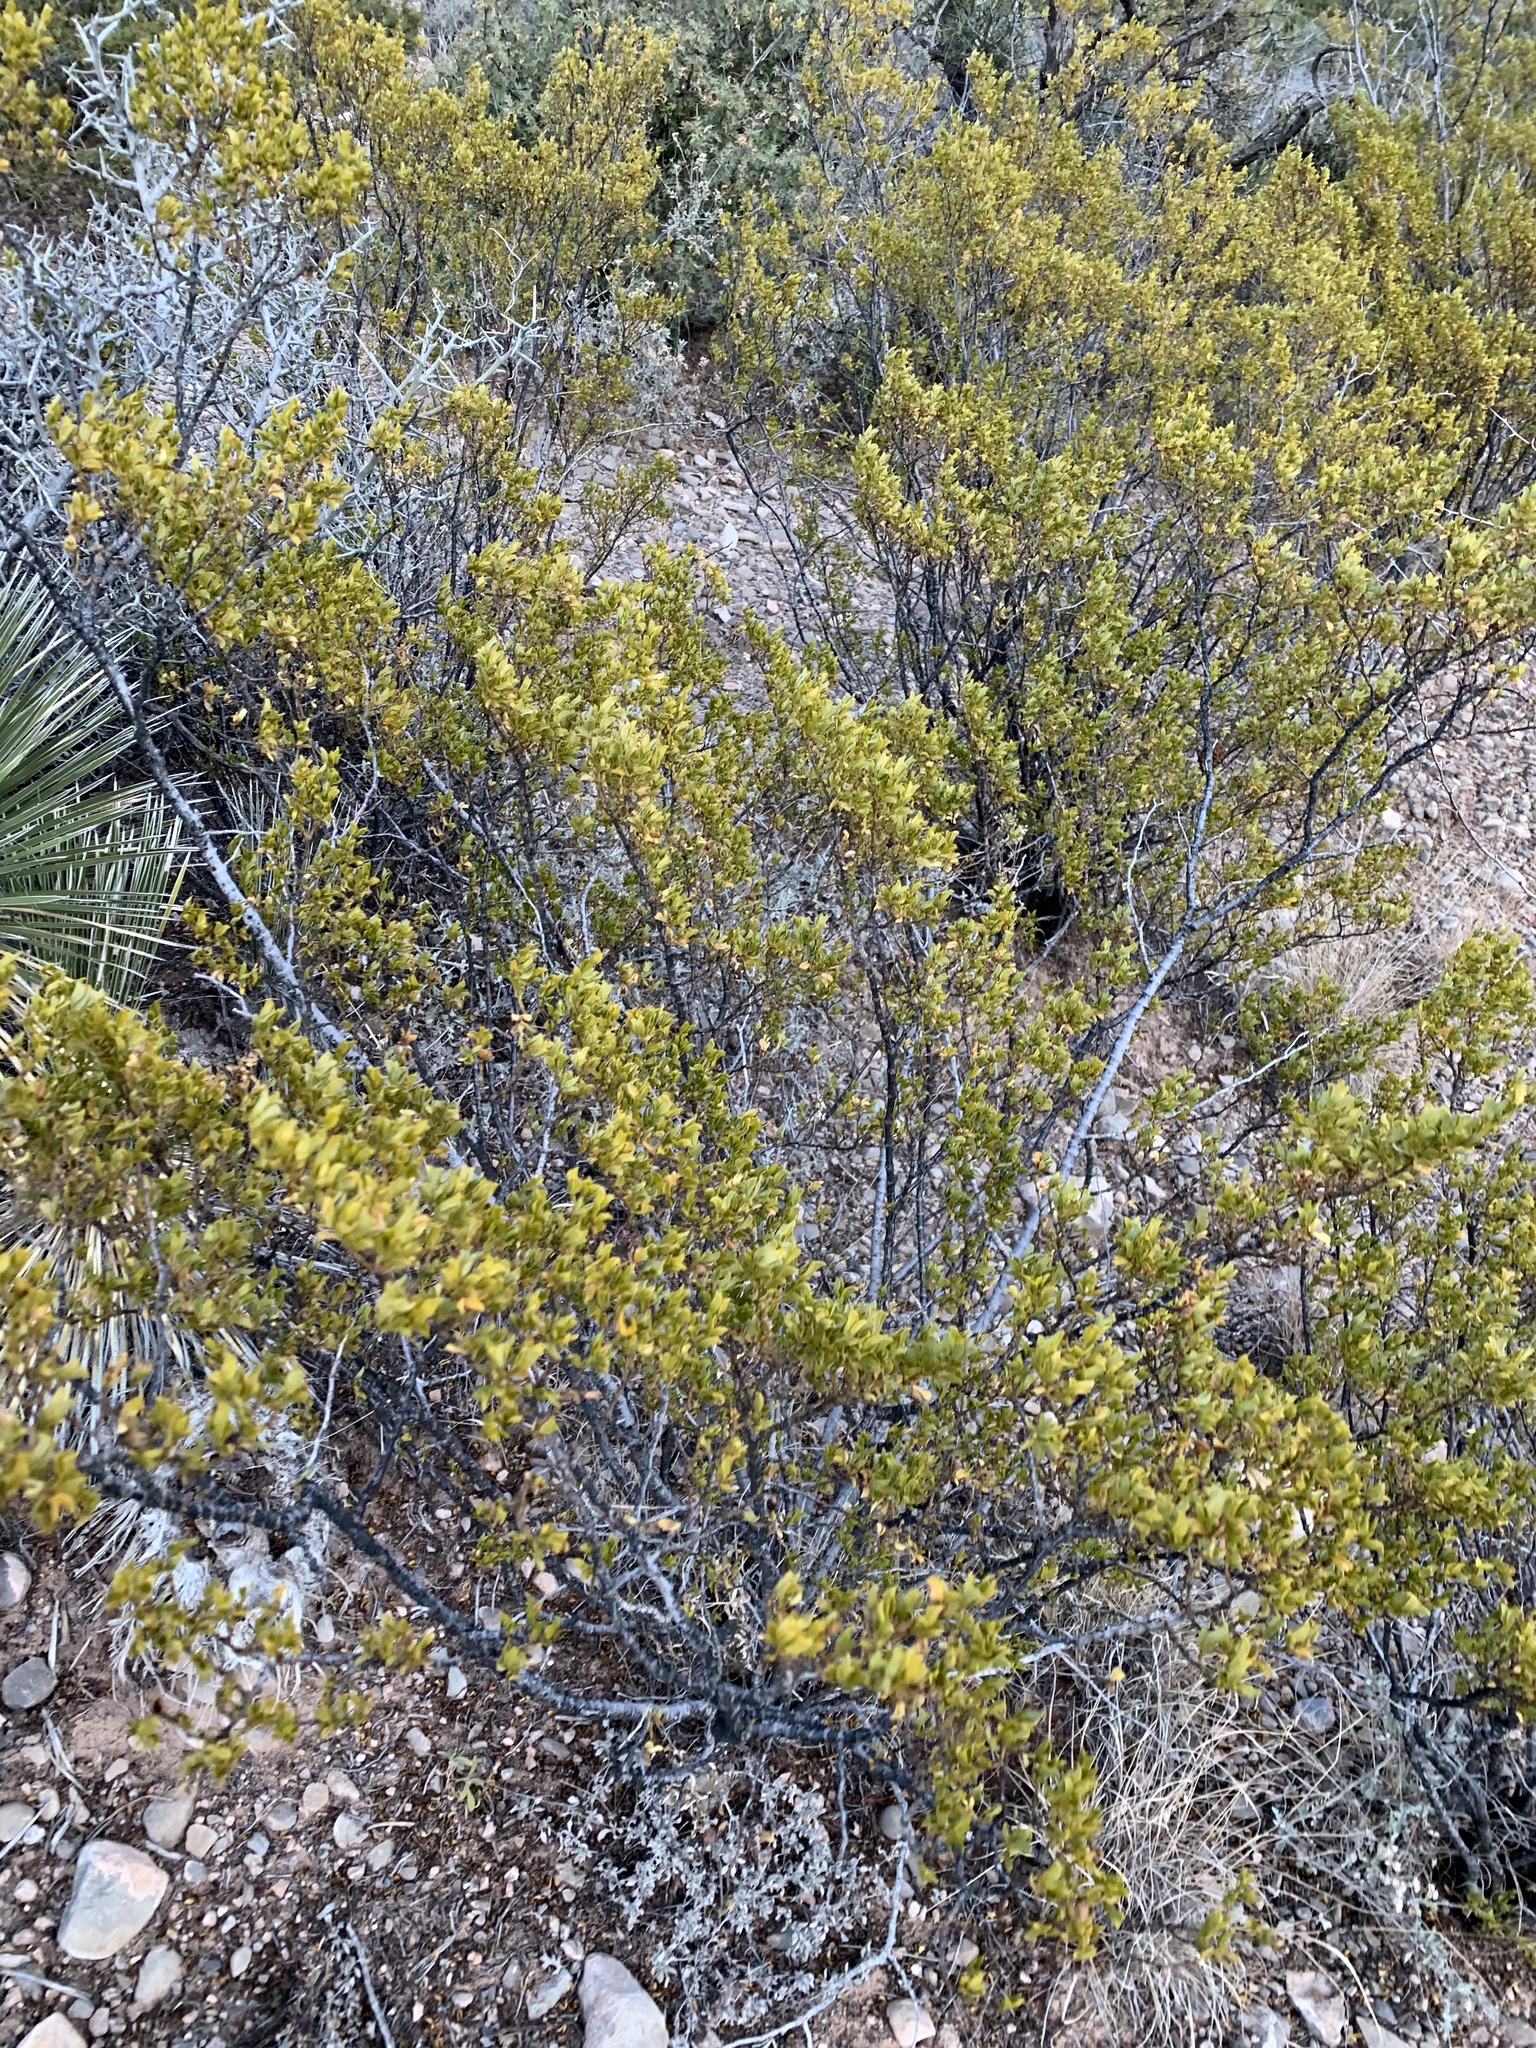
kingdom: Plantae
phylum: Tracheophyta
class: Magnoliopsida
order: Zygophyllales
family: Zygophyllaceae
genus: Larrea
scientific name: Larrea tridentata
